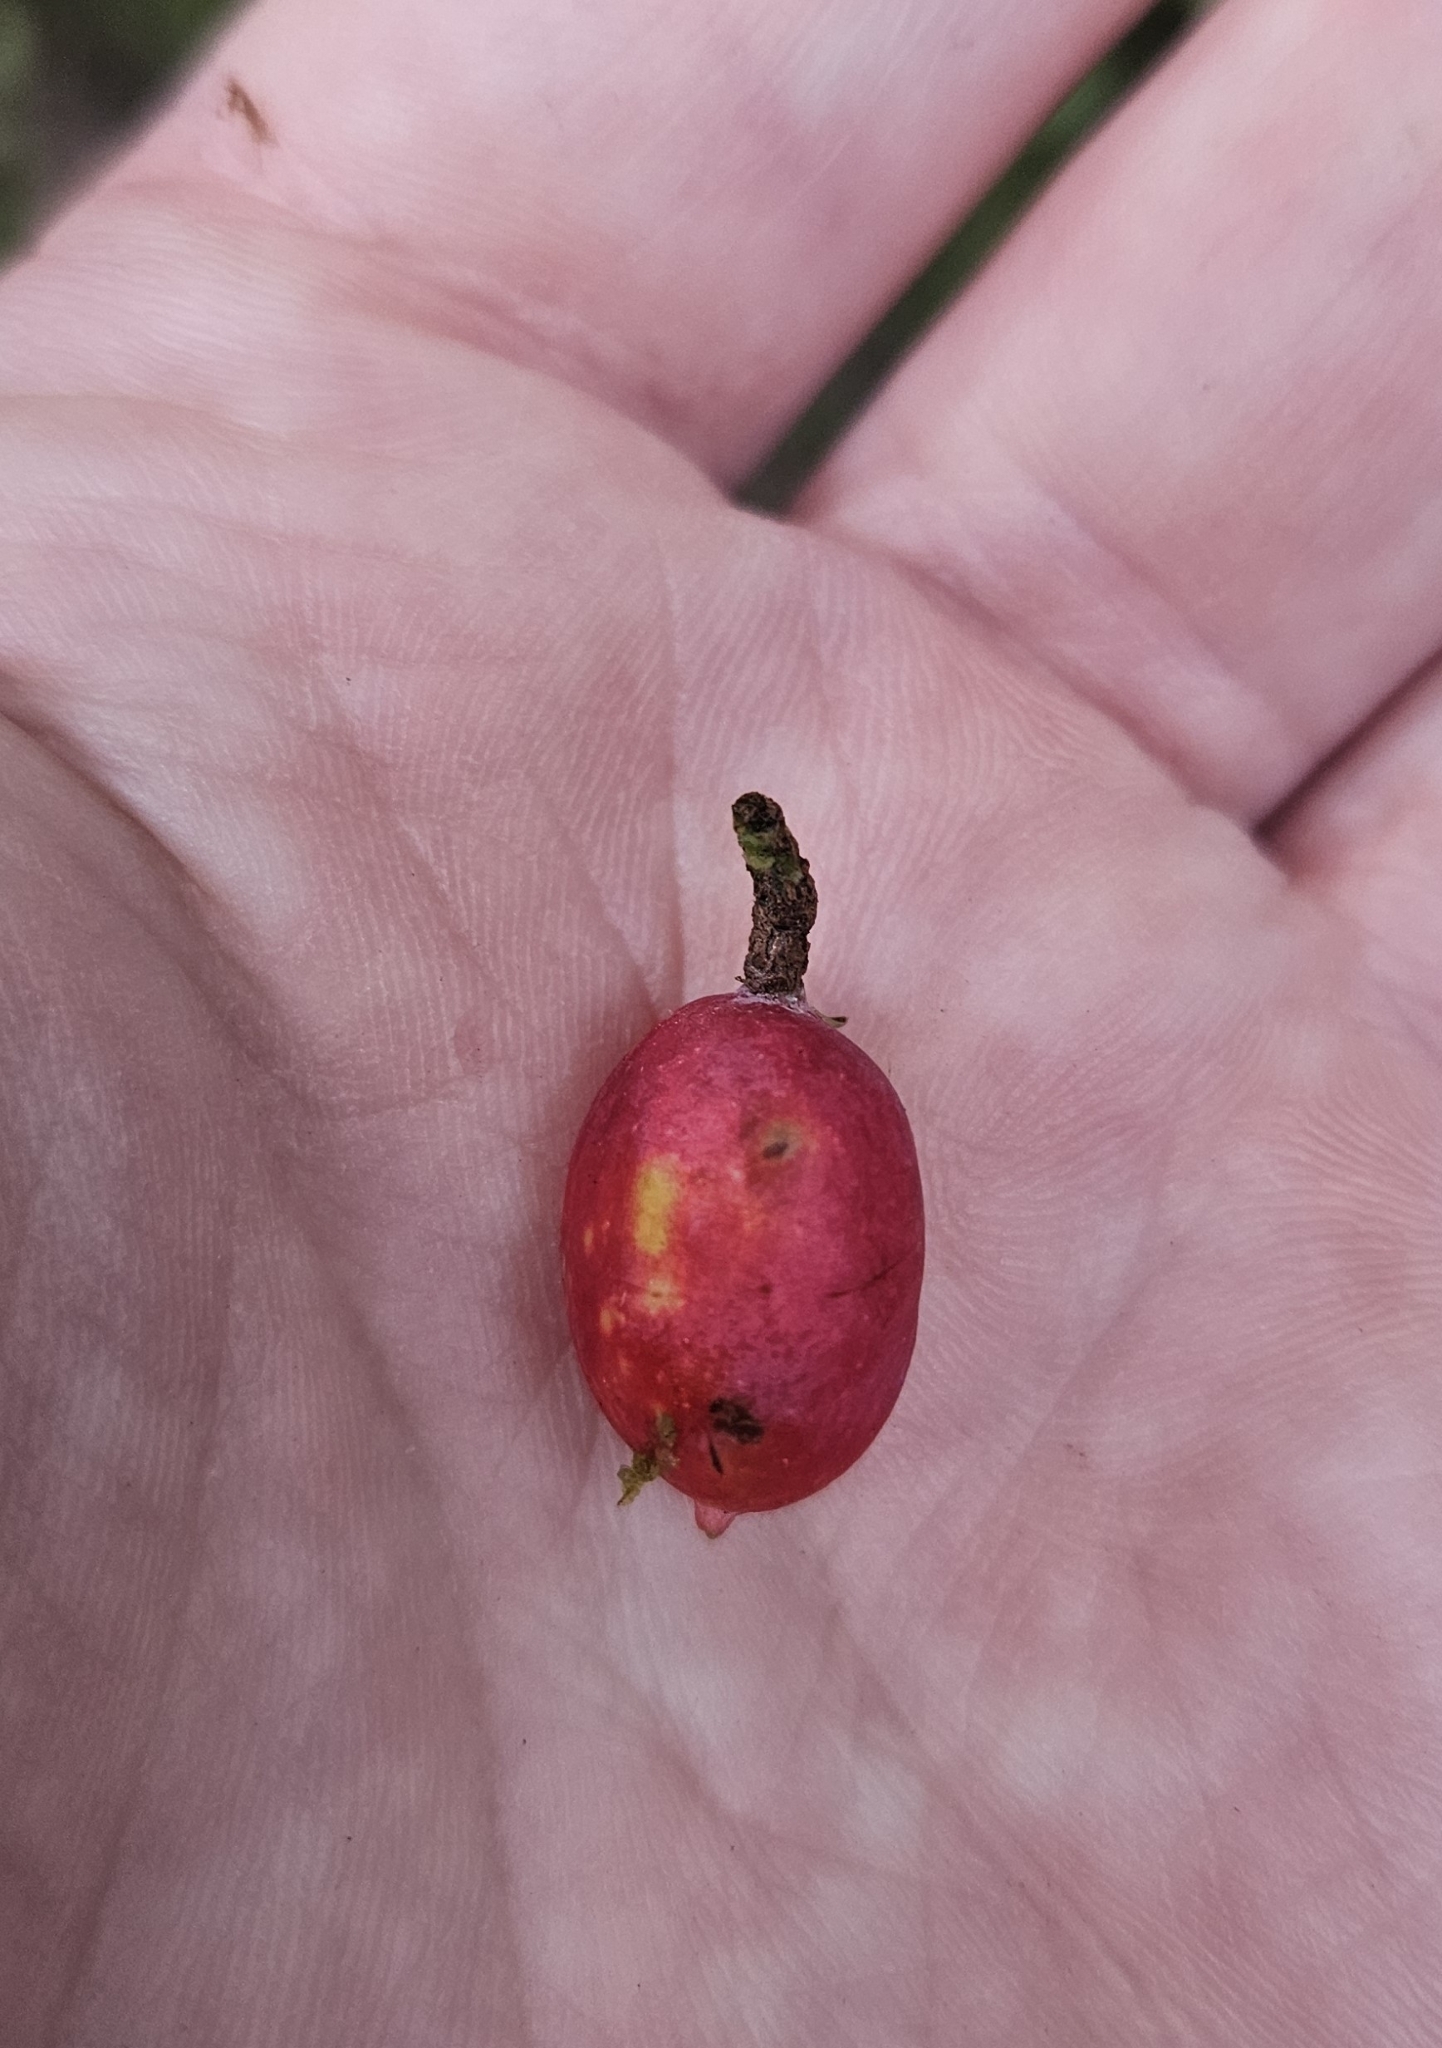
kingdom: Plantae
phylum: Tracheophyta
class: Pinopsida
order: Pinales
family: Podocarpaceae
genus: Prumnopitys
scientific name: Prumnopitys ferruginea
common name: Brown pine
